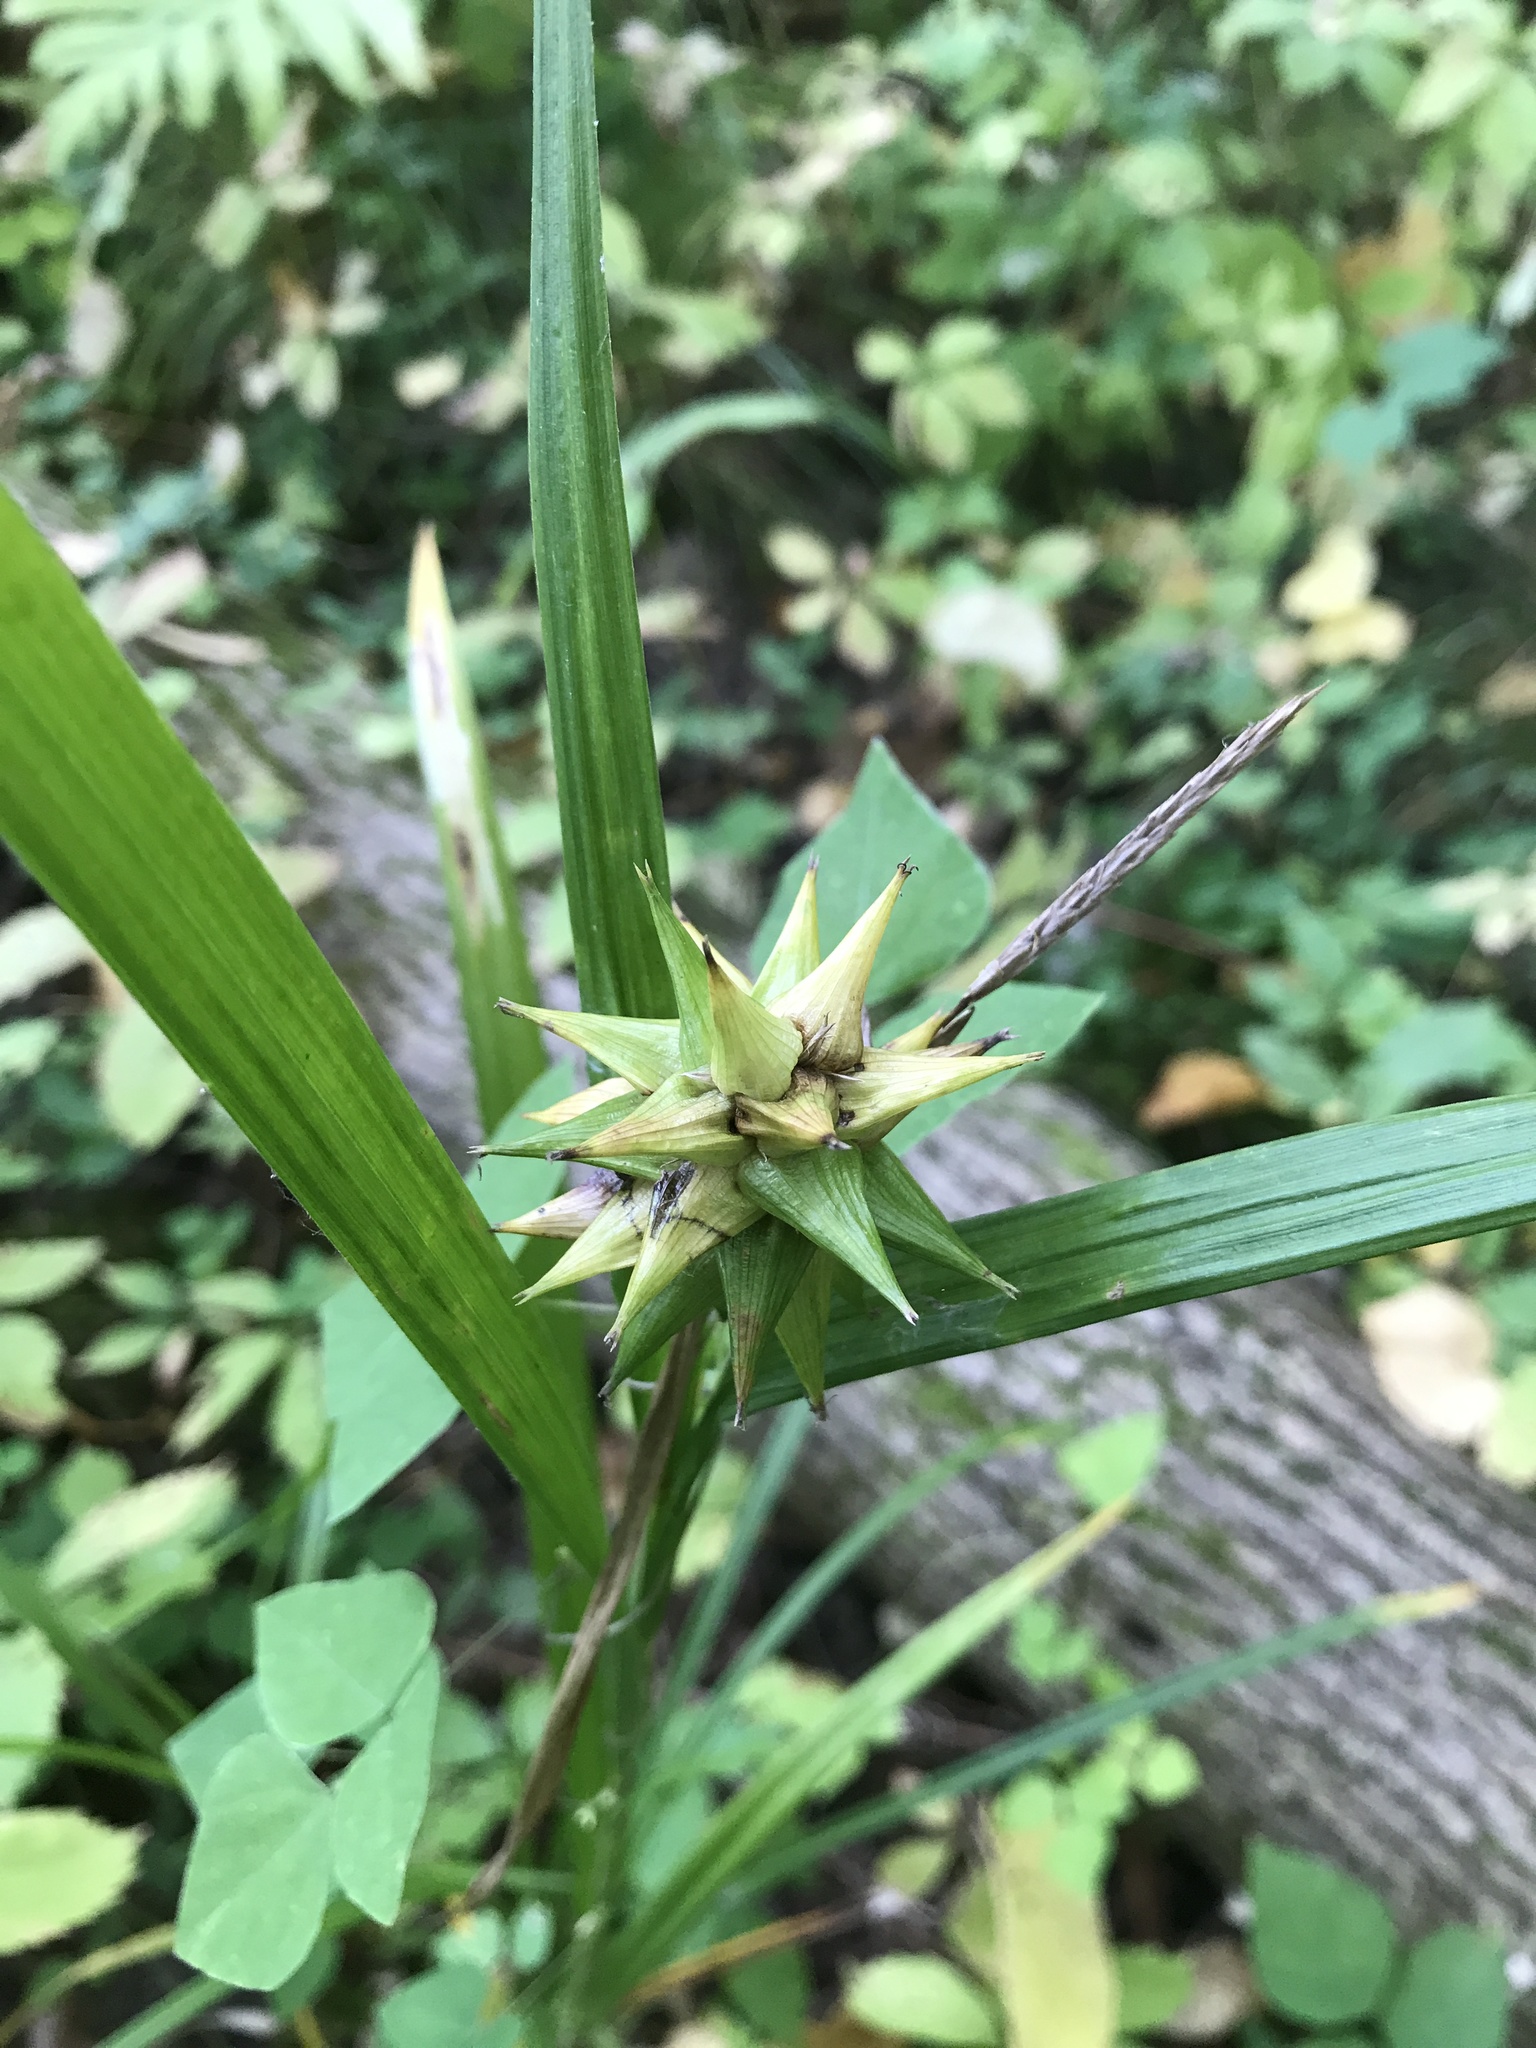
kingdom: Plantae
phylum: Tracheophyta
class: Liliopsida
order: Poales
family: Cyperaceae
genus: Carex
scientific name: Carex grayi
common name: Asa gray's sedge
